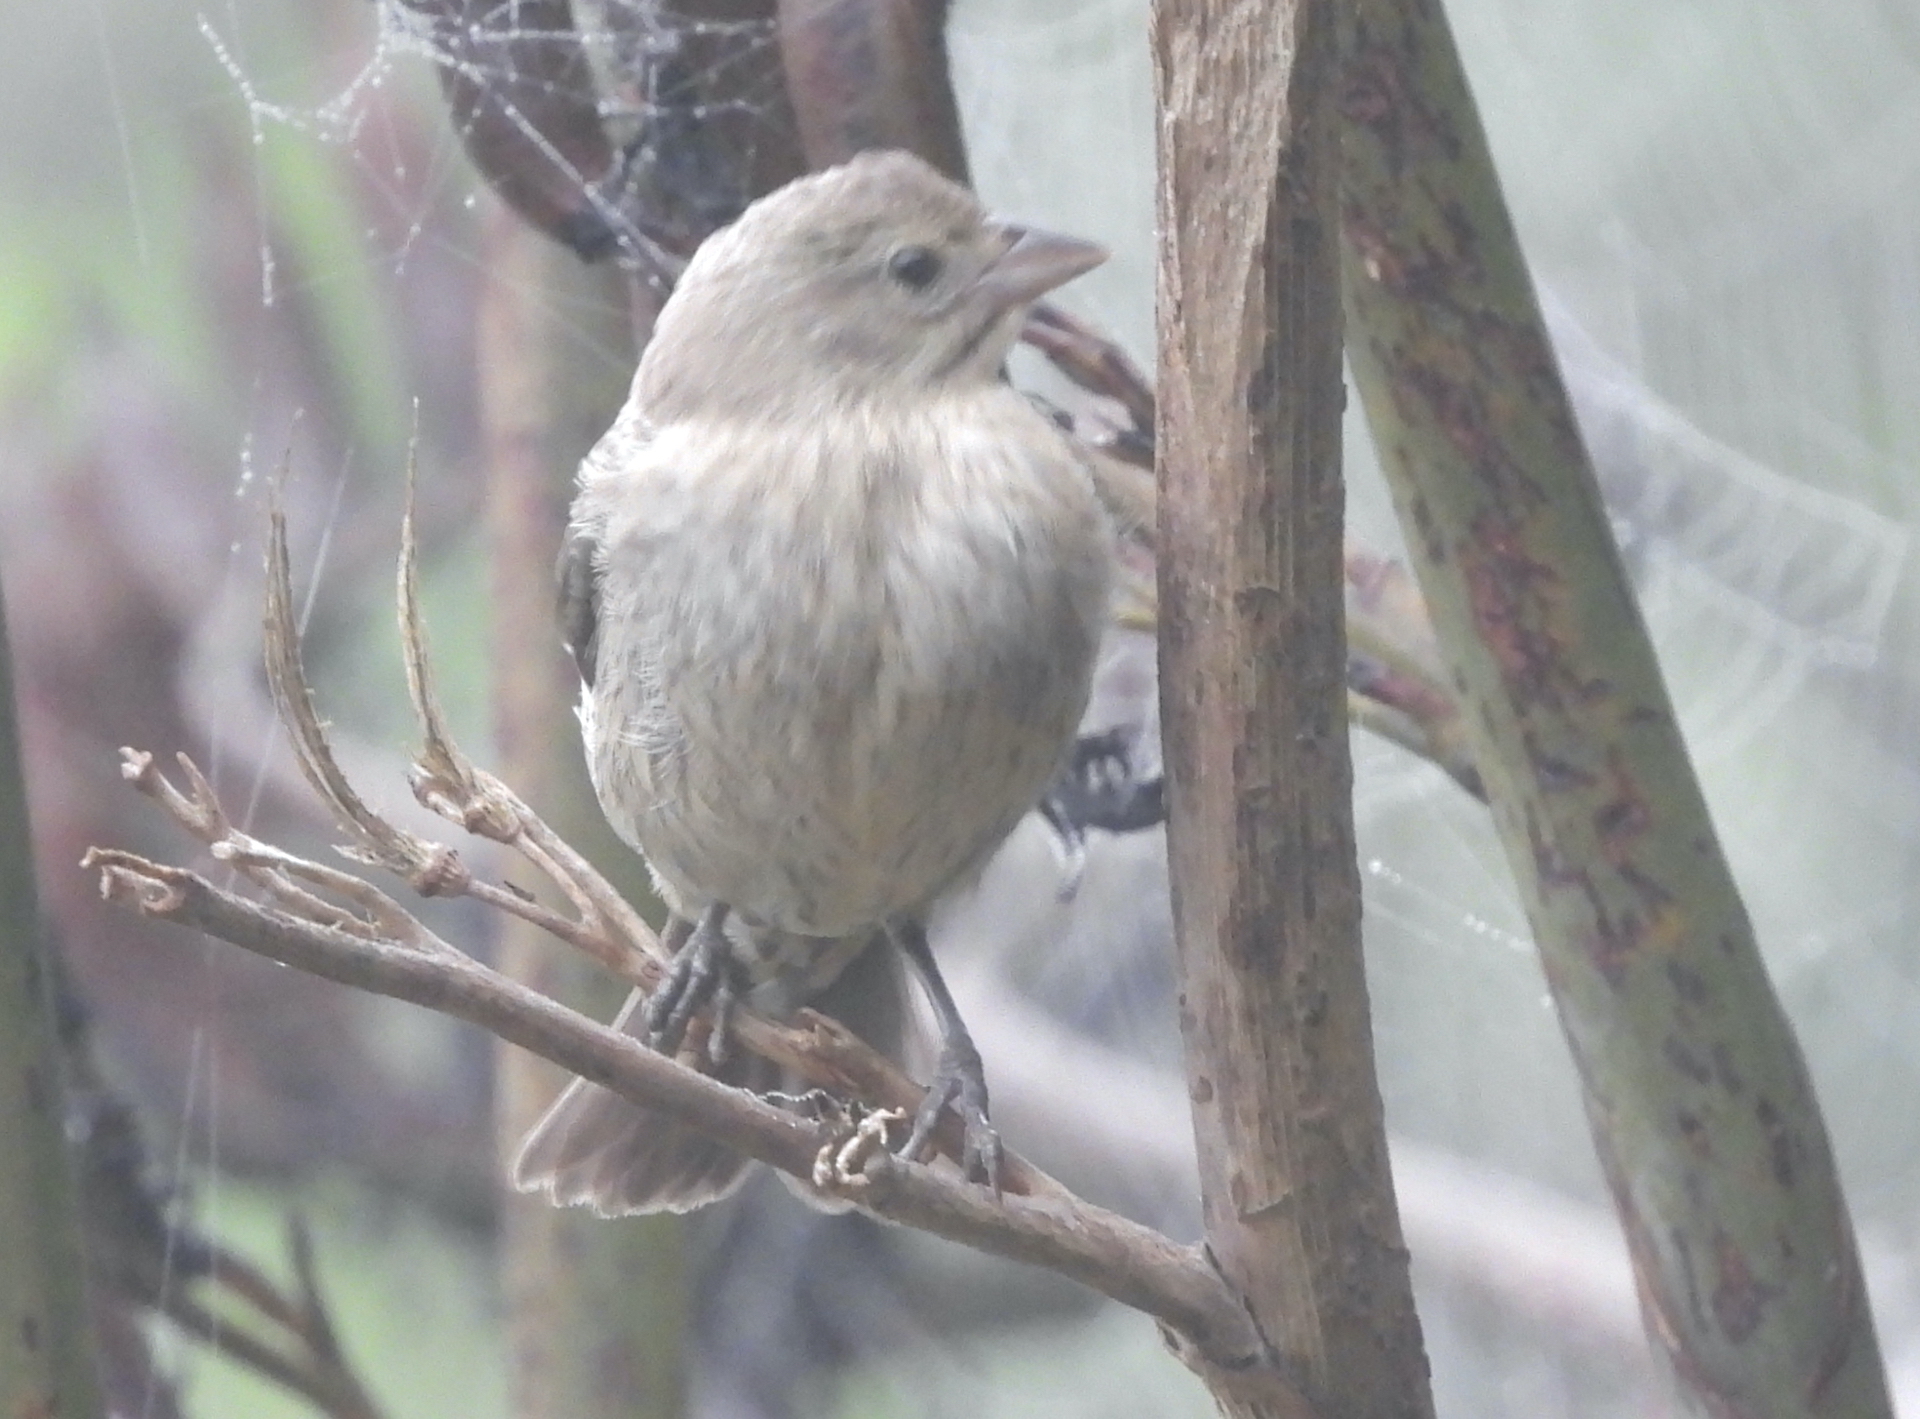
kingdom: Animalia
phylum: Chordata
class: Aves
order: Passeriformes
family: Icteridae
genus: Molothrus
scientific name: Molothrus ater
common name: Brown-headed cowbird
